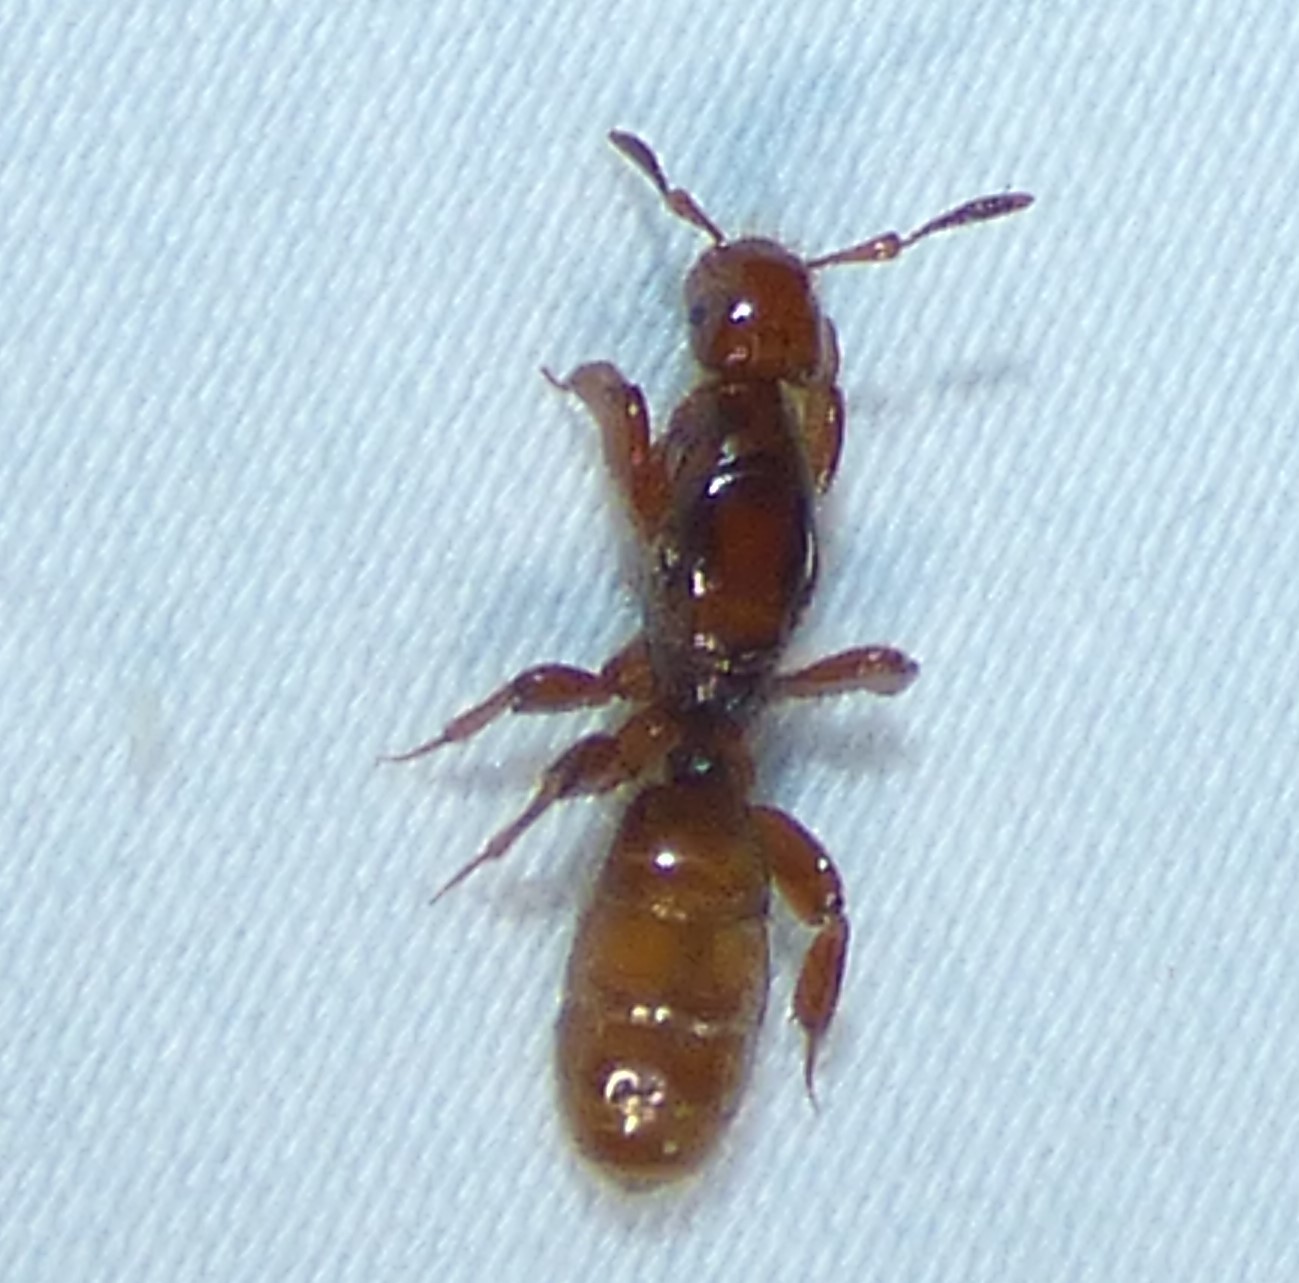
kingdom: Animalia
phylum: Arthropoda
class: Insecta
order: Hymenoptera
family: Formicidae
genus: Acanthomyops
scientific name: Acanthomyops latipes
